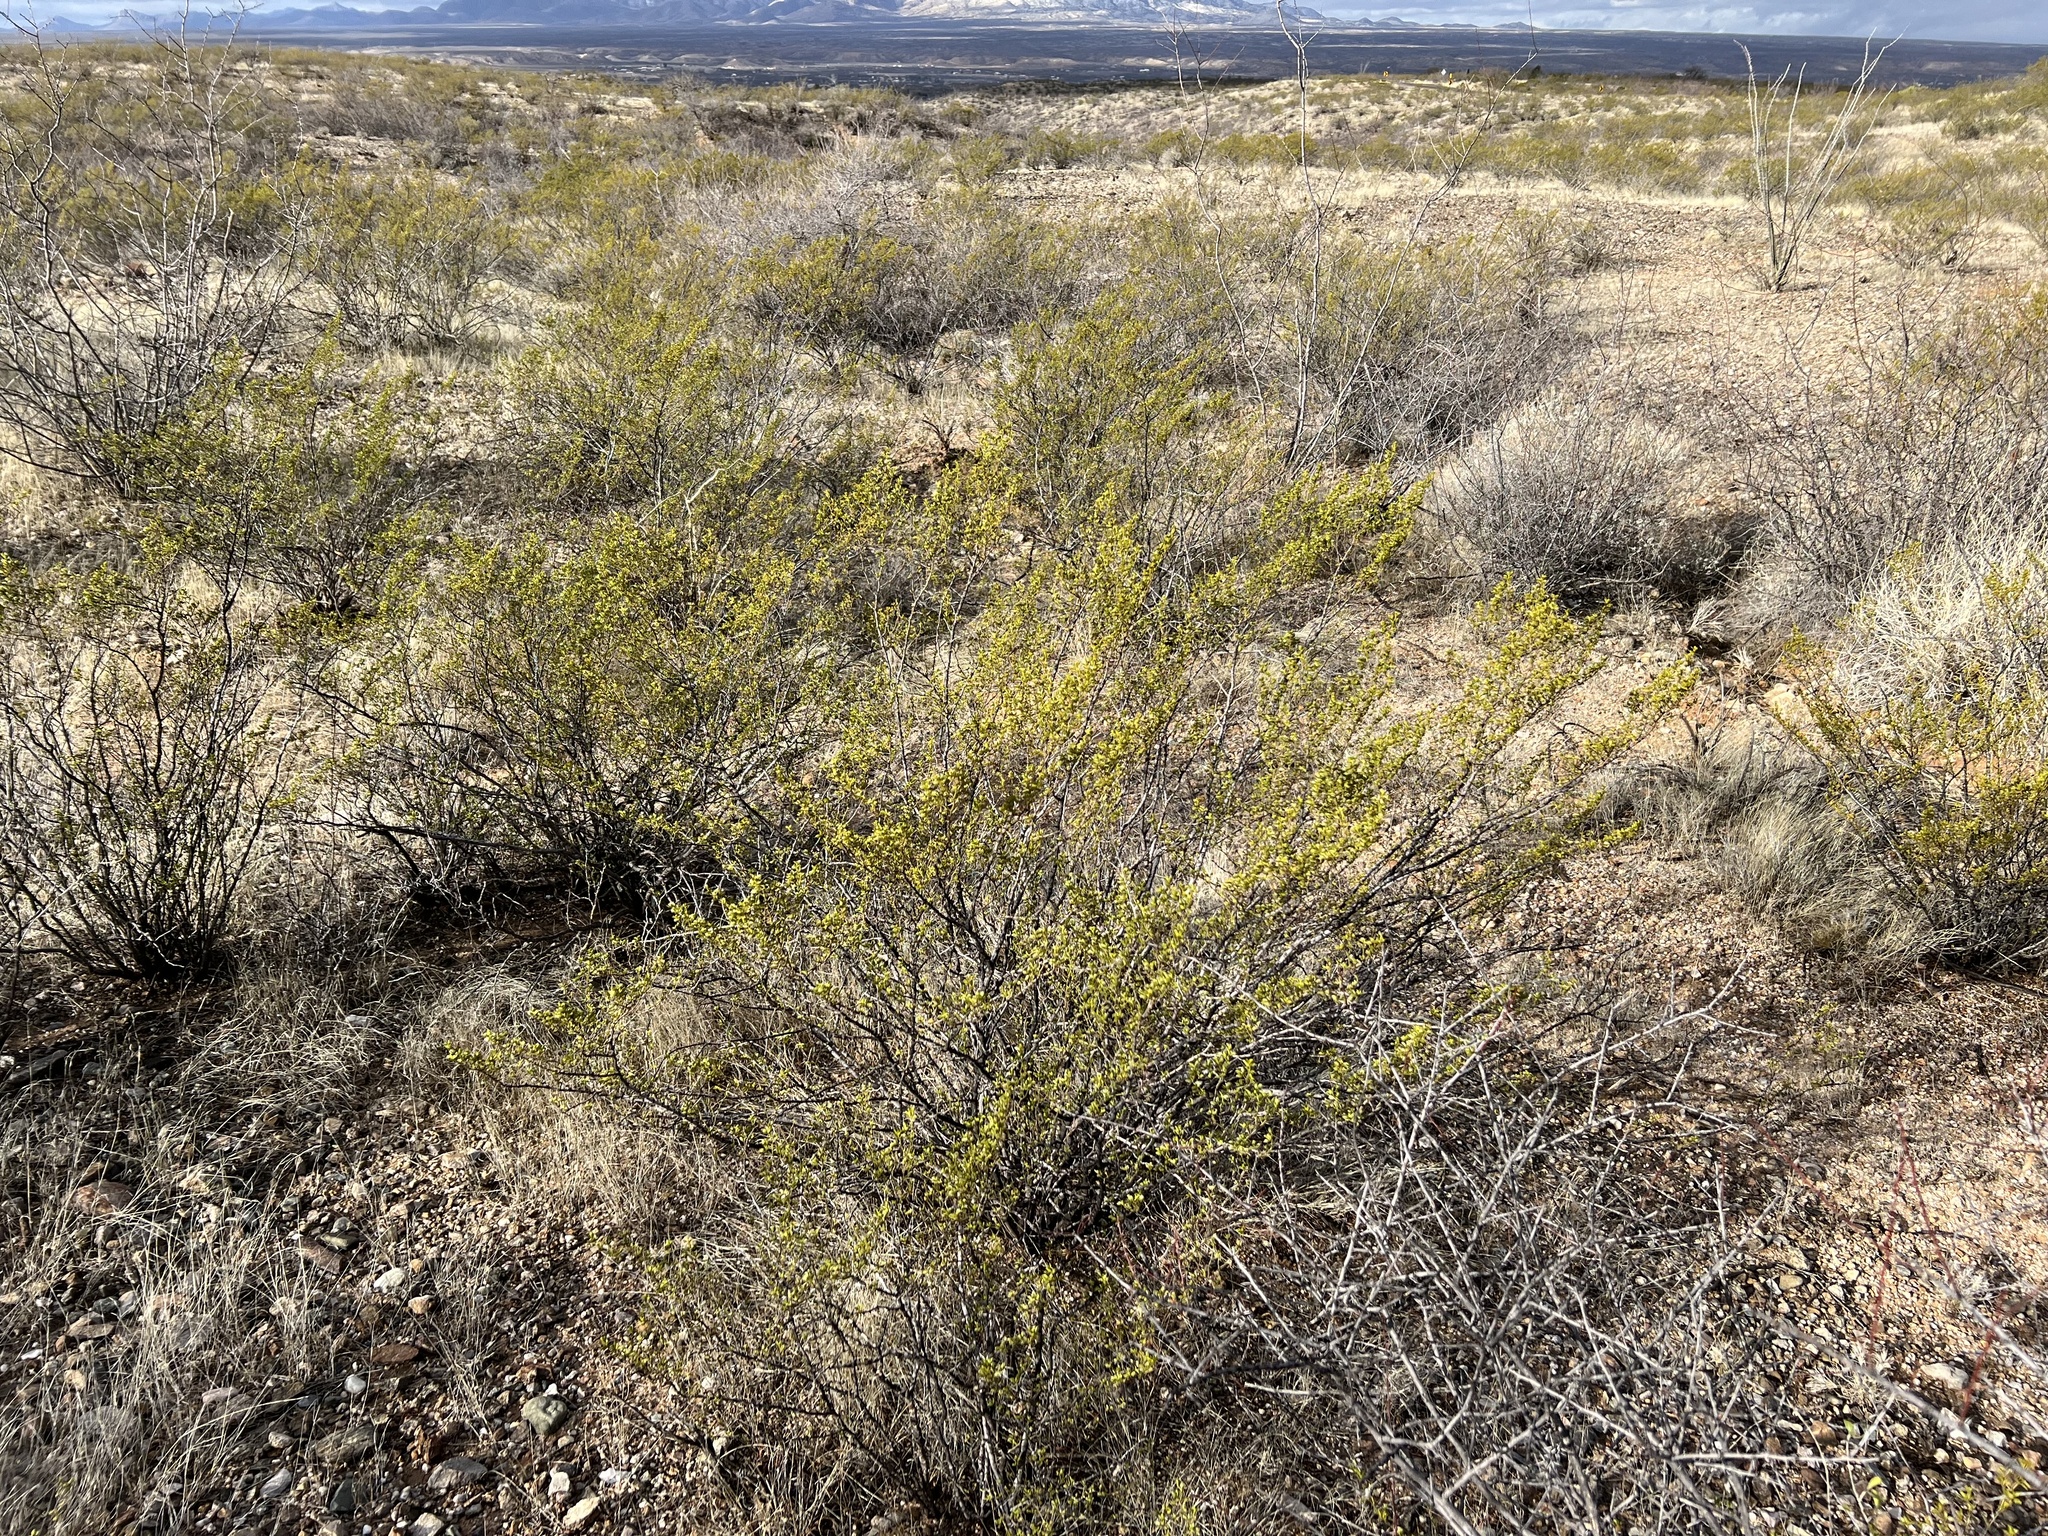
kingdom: Plantae
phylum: Tracheophyta
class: Magnoliopsida
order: Zygophyllales
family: Zygophyllaceae
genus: Larrea
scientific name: Larrea tridentata
